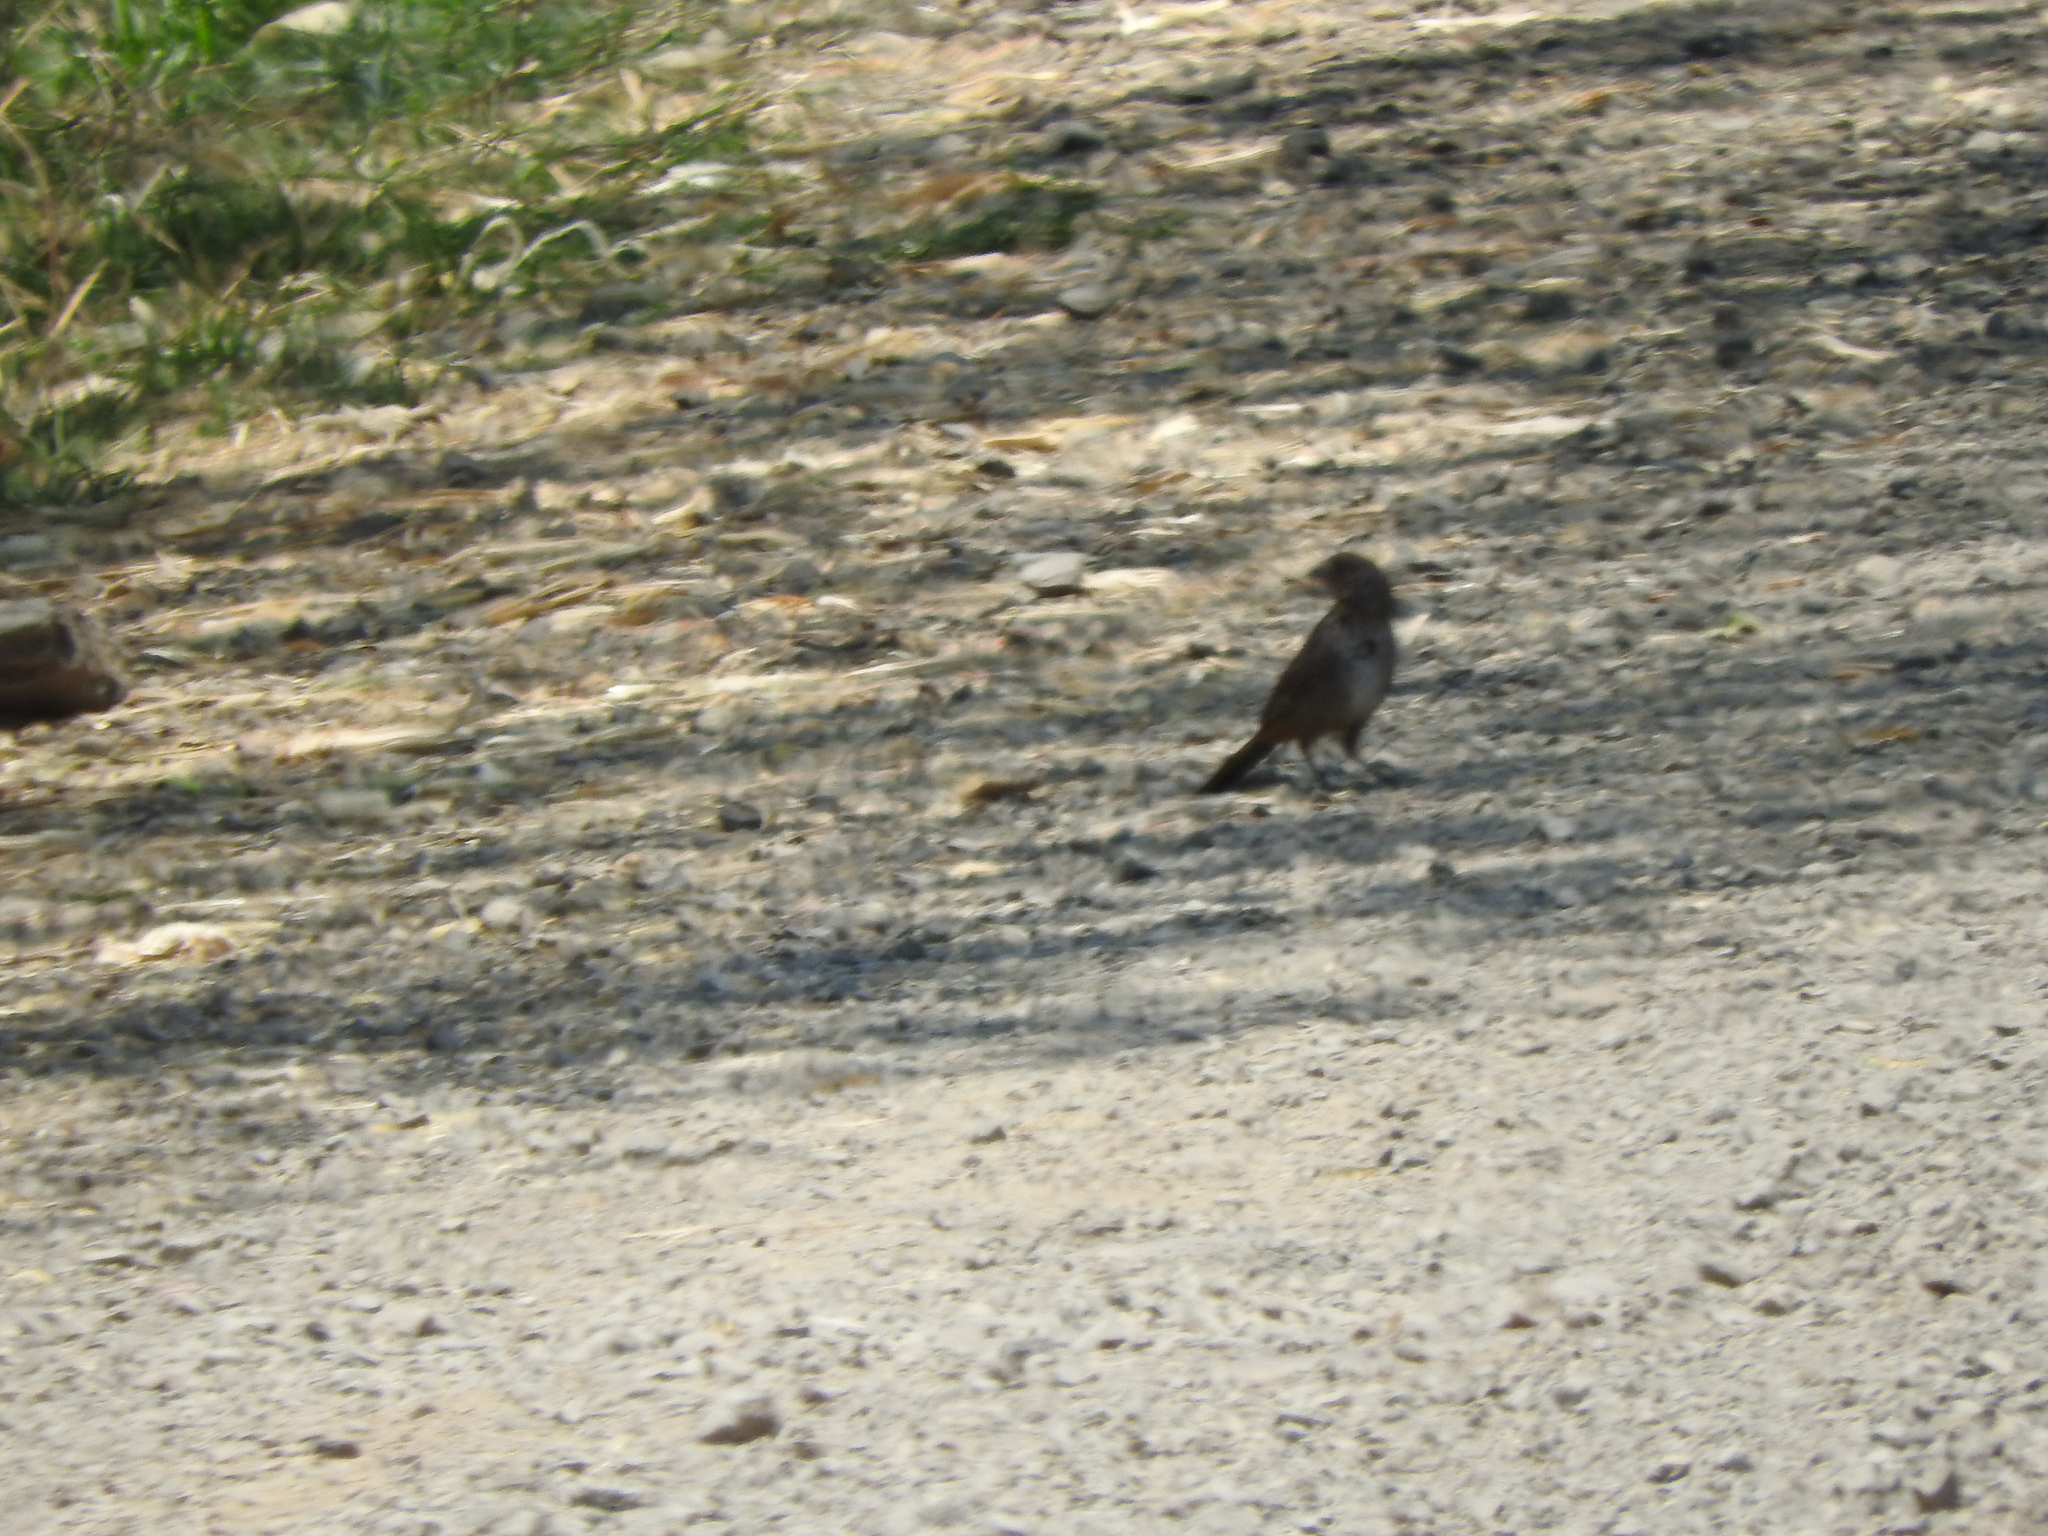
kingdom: Animalia
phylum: Chordata
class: Aves
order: Passeriformes
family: Icteridae
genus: Molothrus
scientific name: Molothrus ater
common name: Brown-headed cowbird
